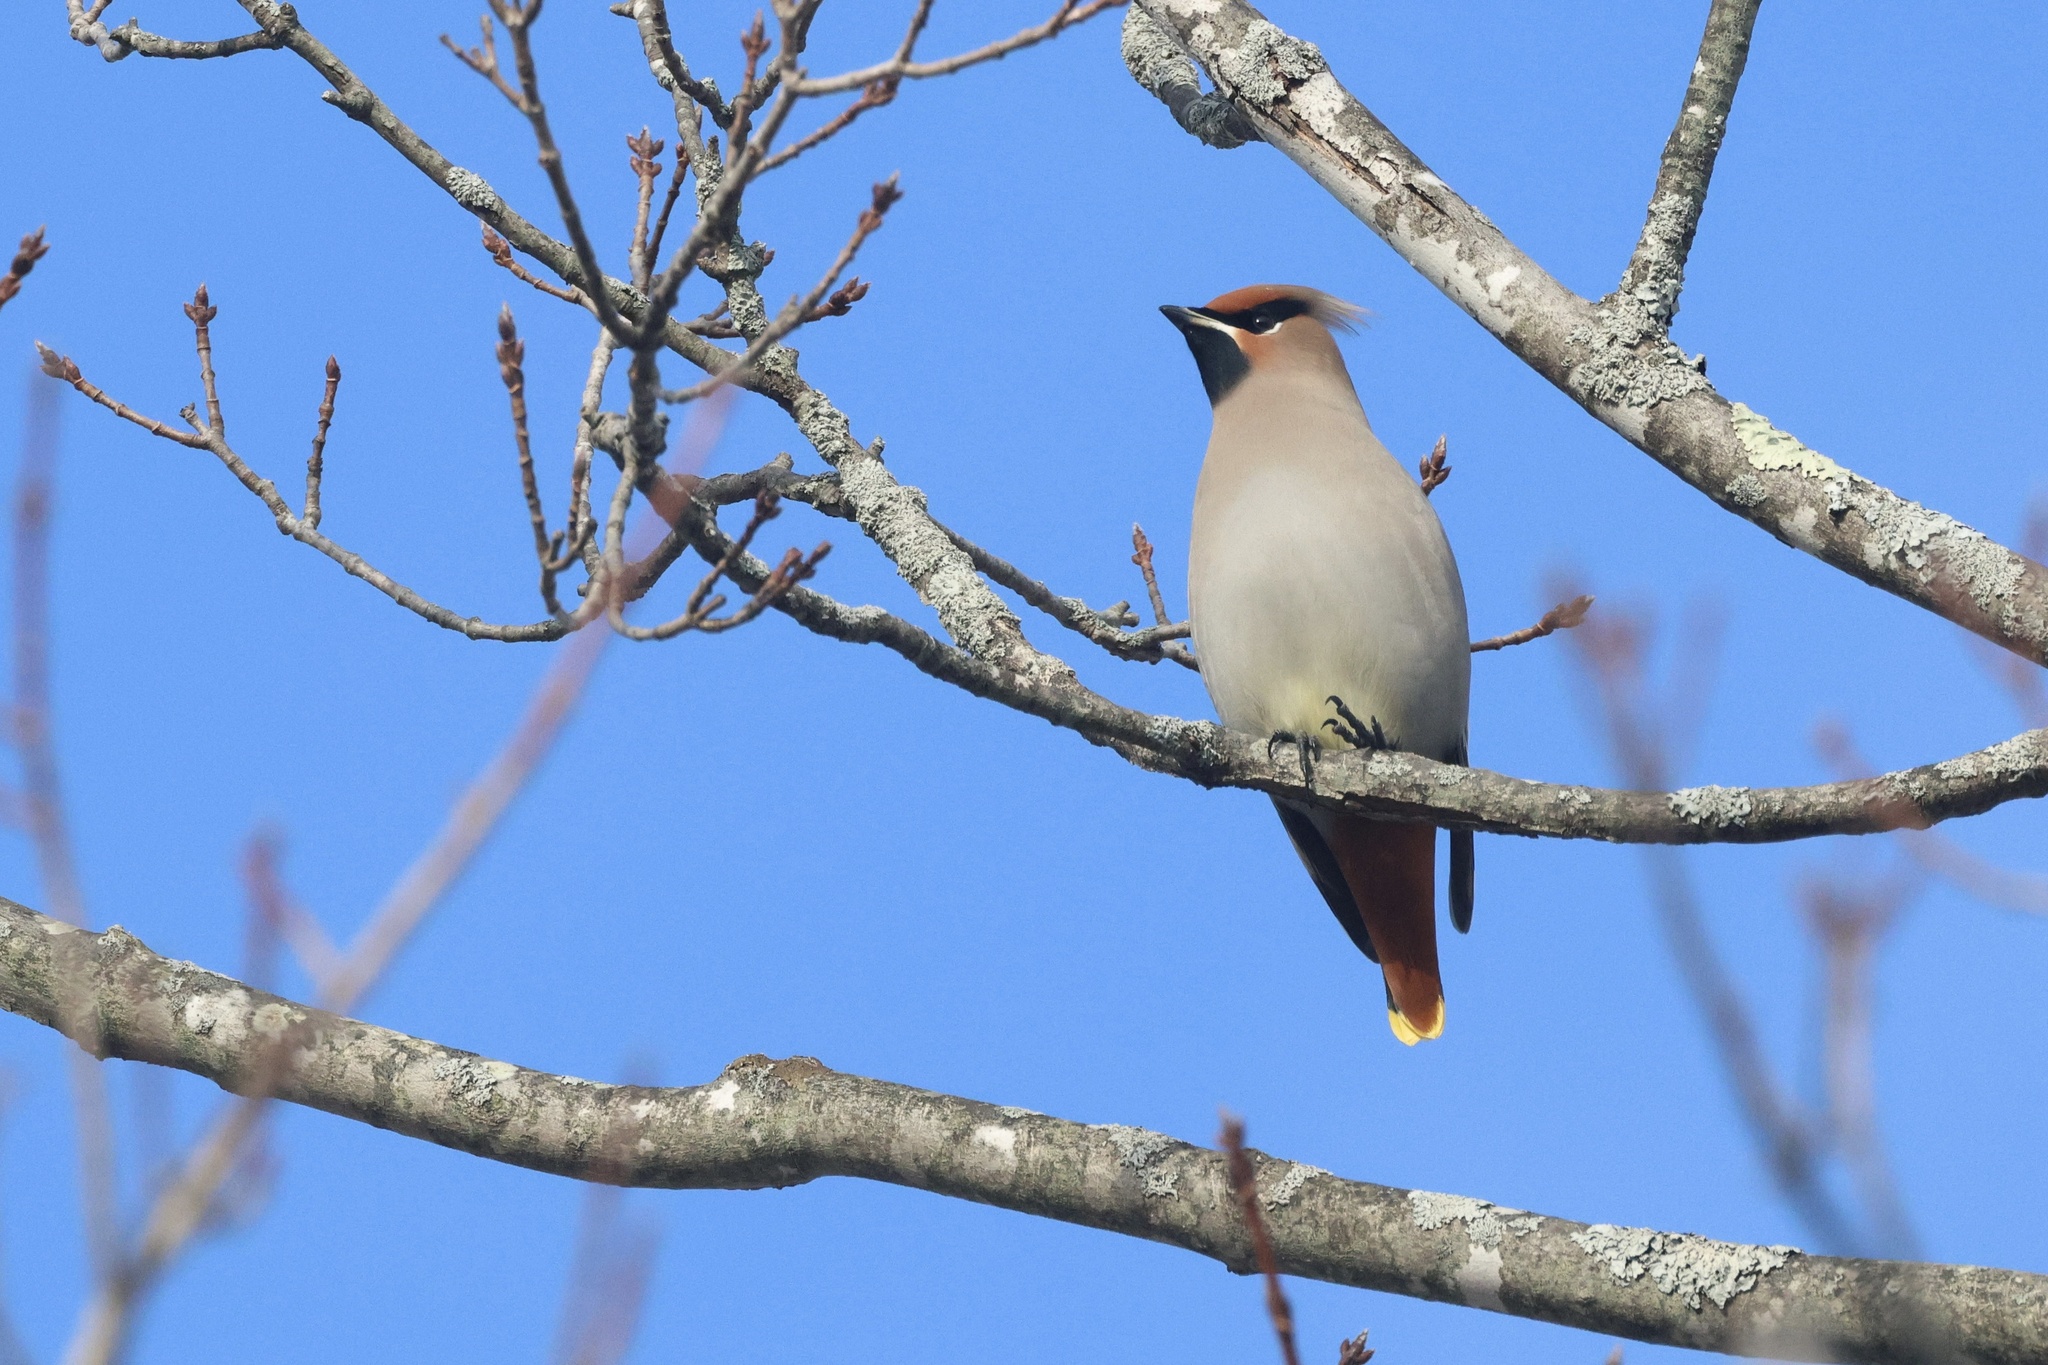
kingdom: Animalia
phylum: Chordata
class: Aves
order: Passeriformes
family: Bombycillidae
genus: Bombycilla
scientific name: Bombycilla garrulus
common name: Bohemian waxwing
